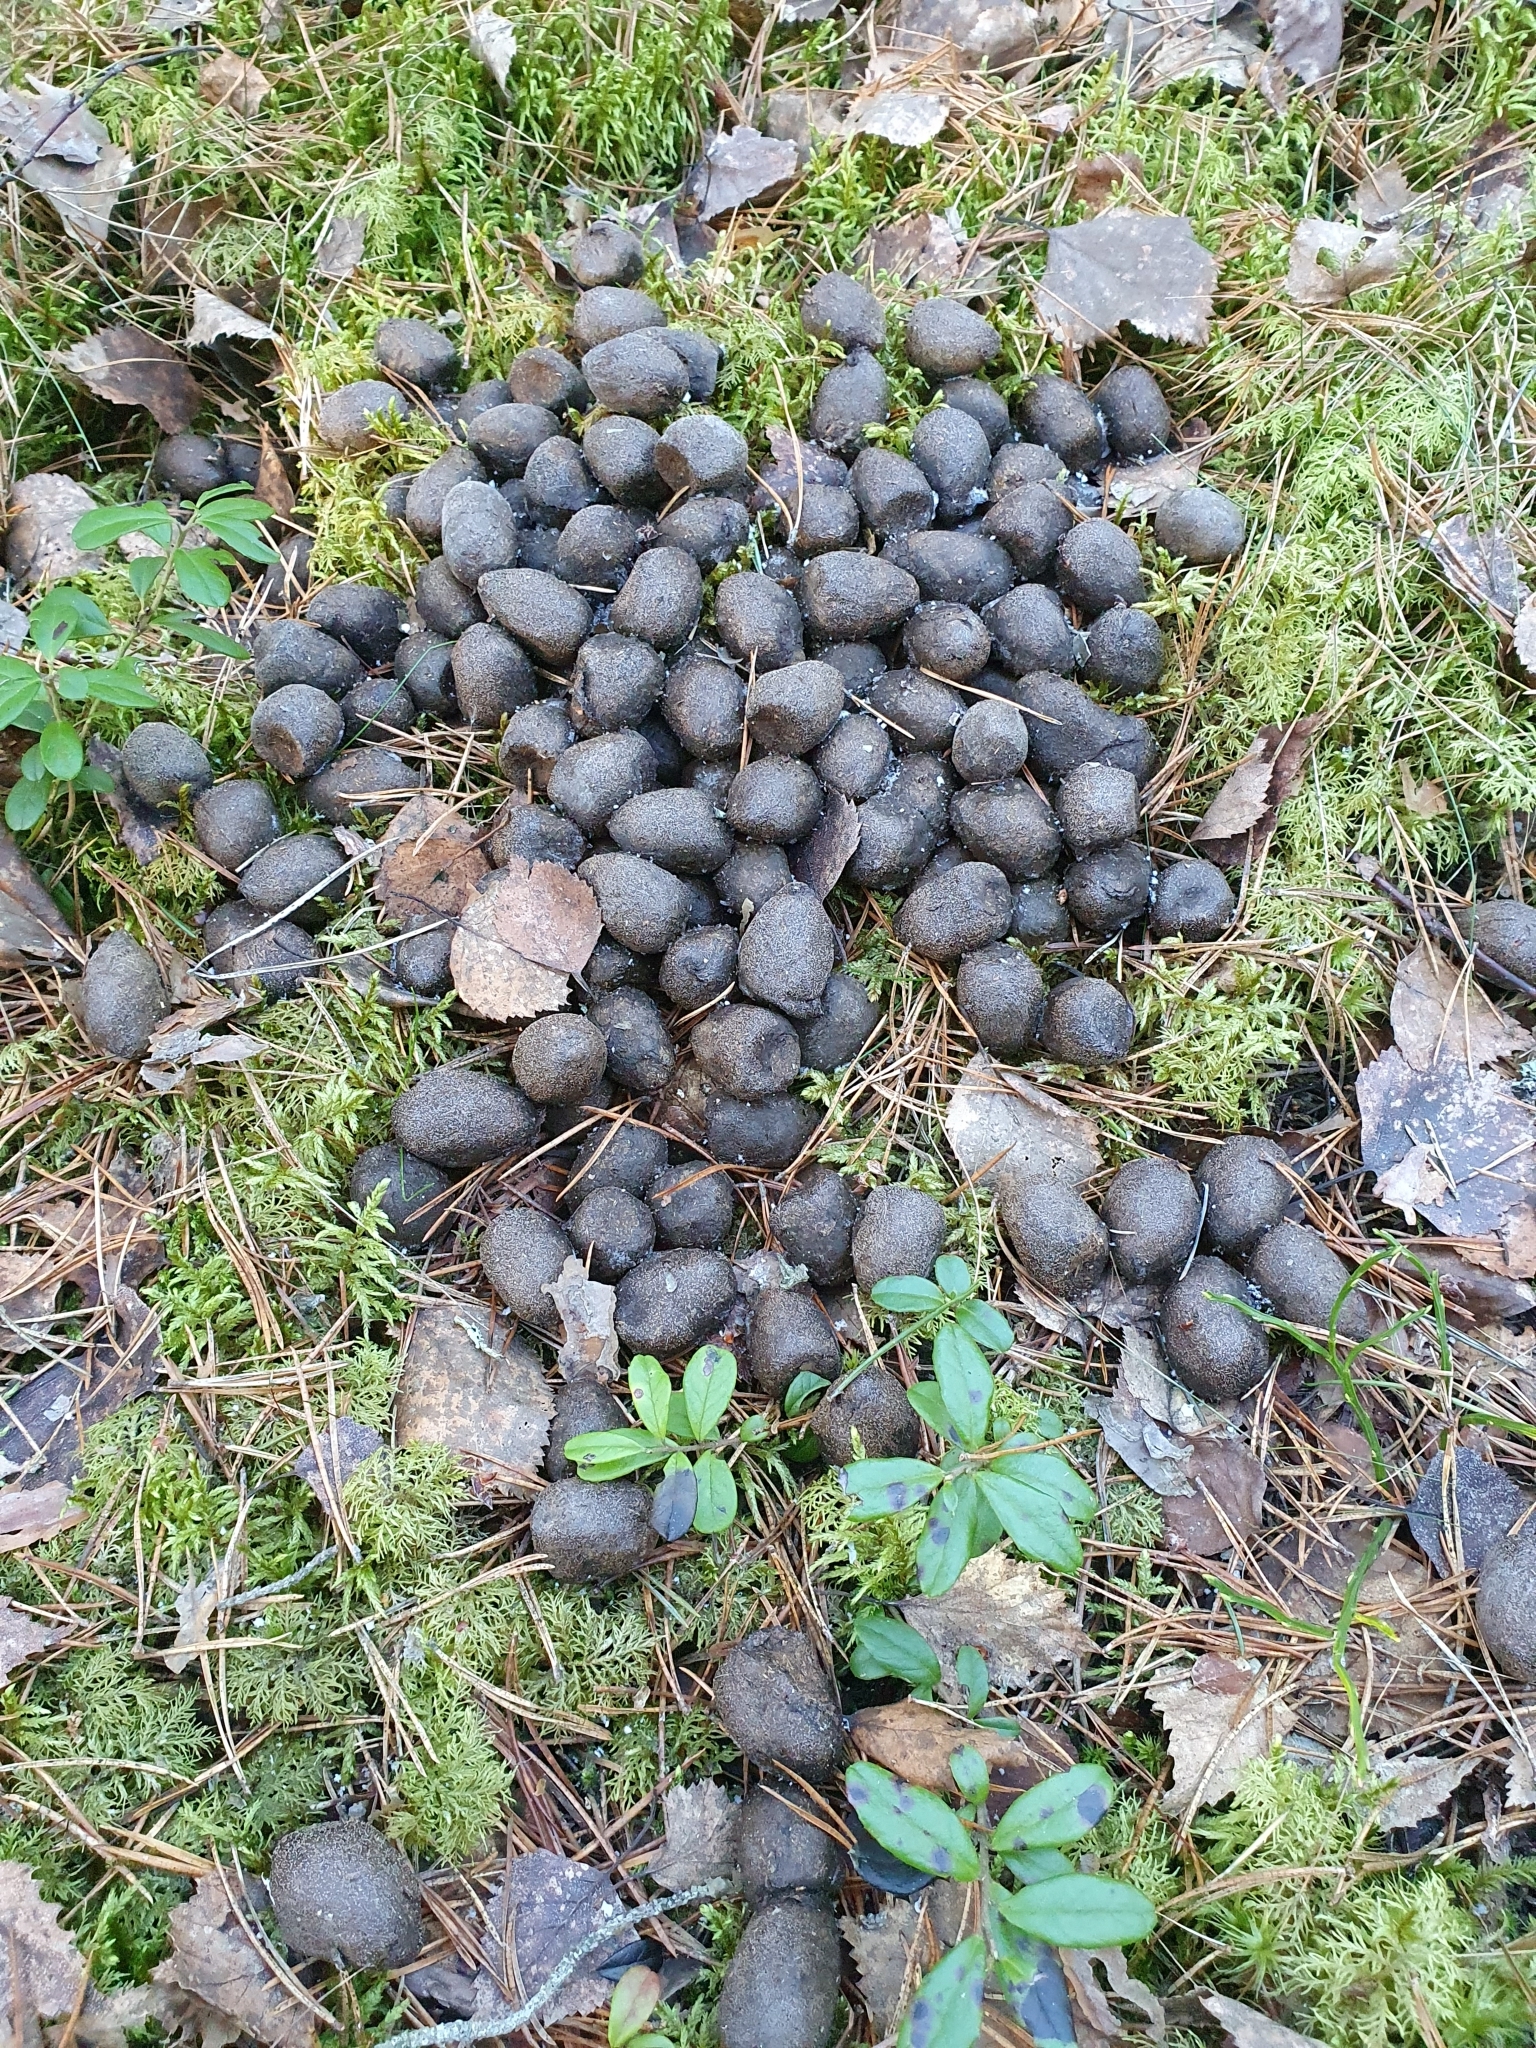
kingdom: Animalia
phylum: Chordata
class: Mammalia
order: Artiodactyla
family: Cervidae
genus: Alces
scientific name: Alces alces
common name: Moose
